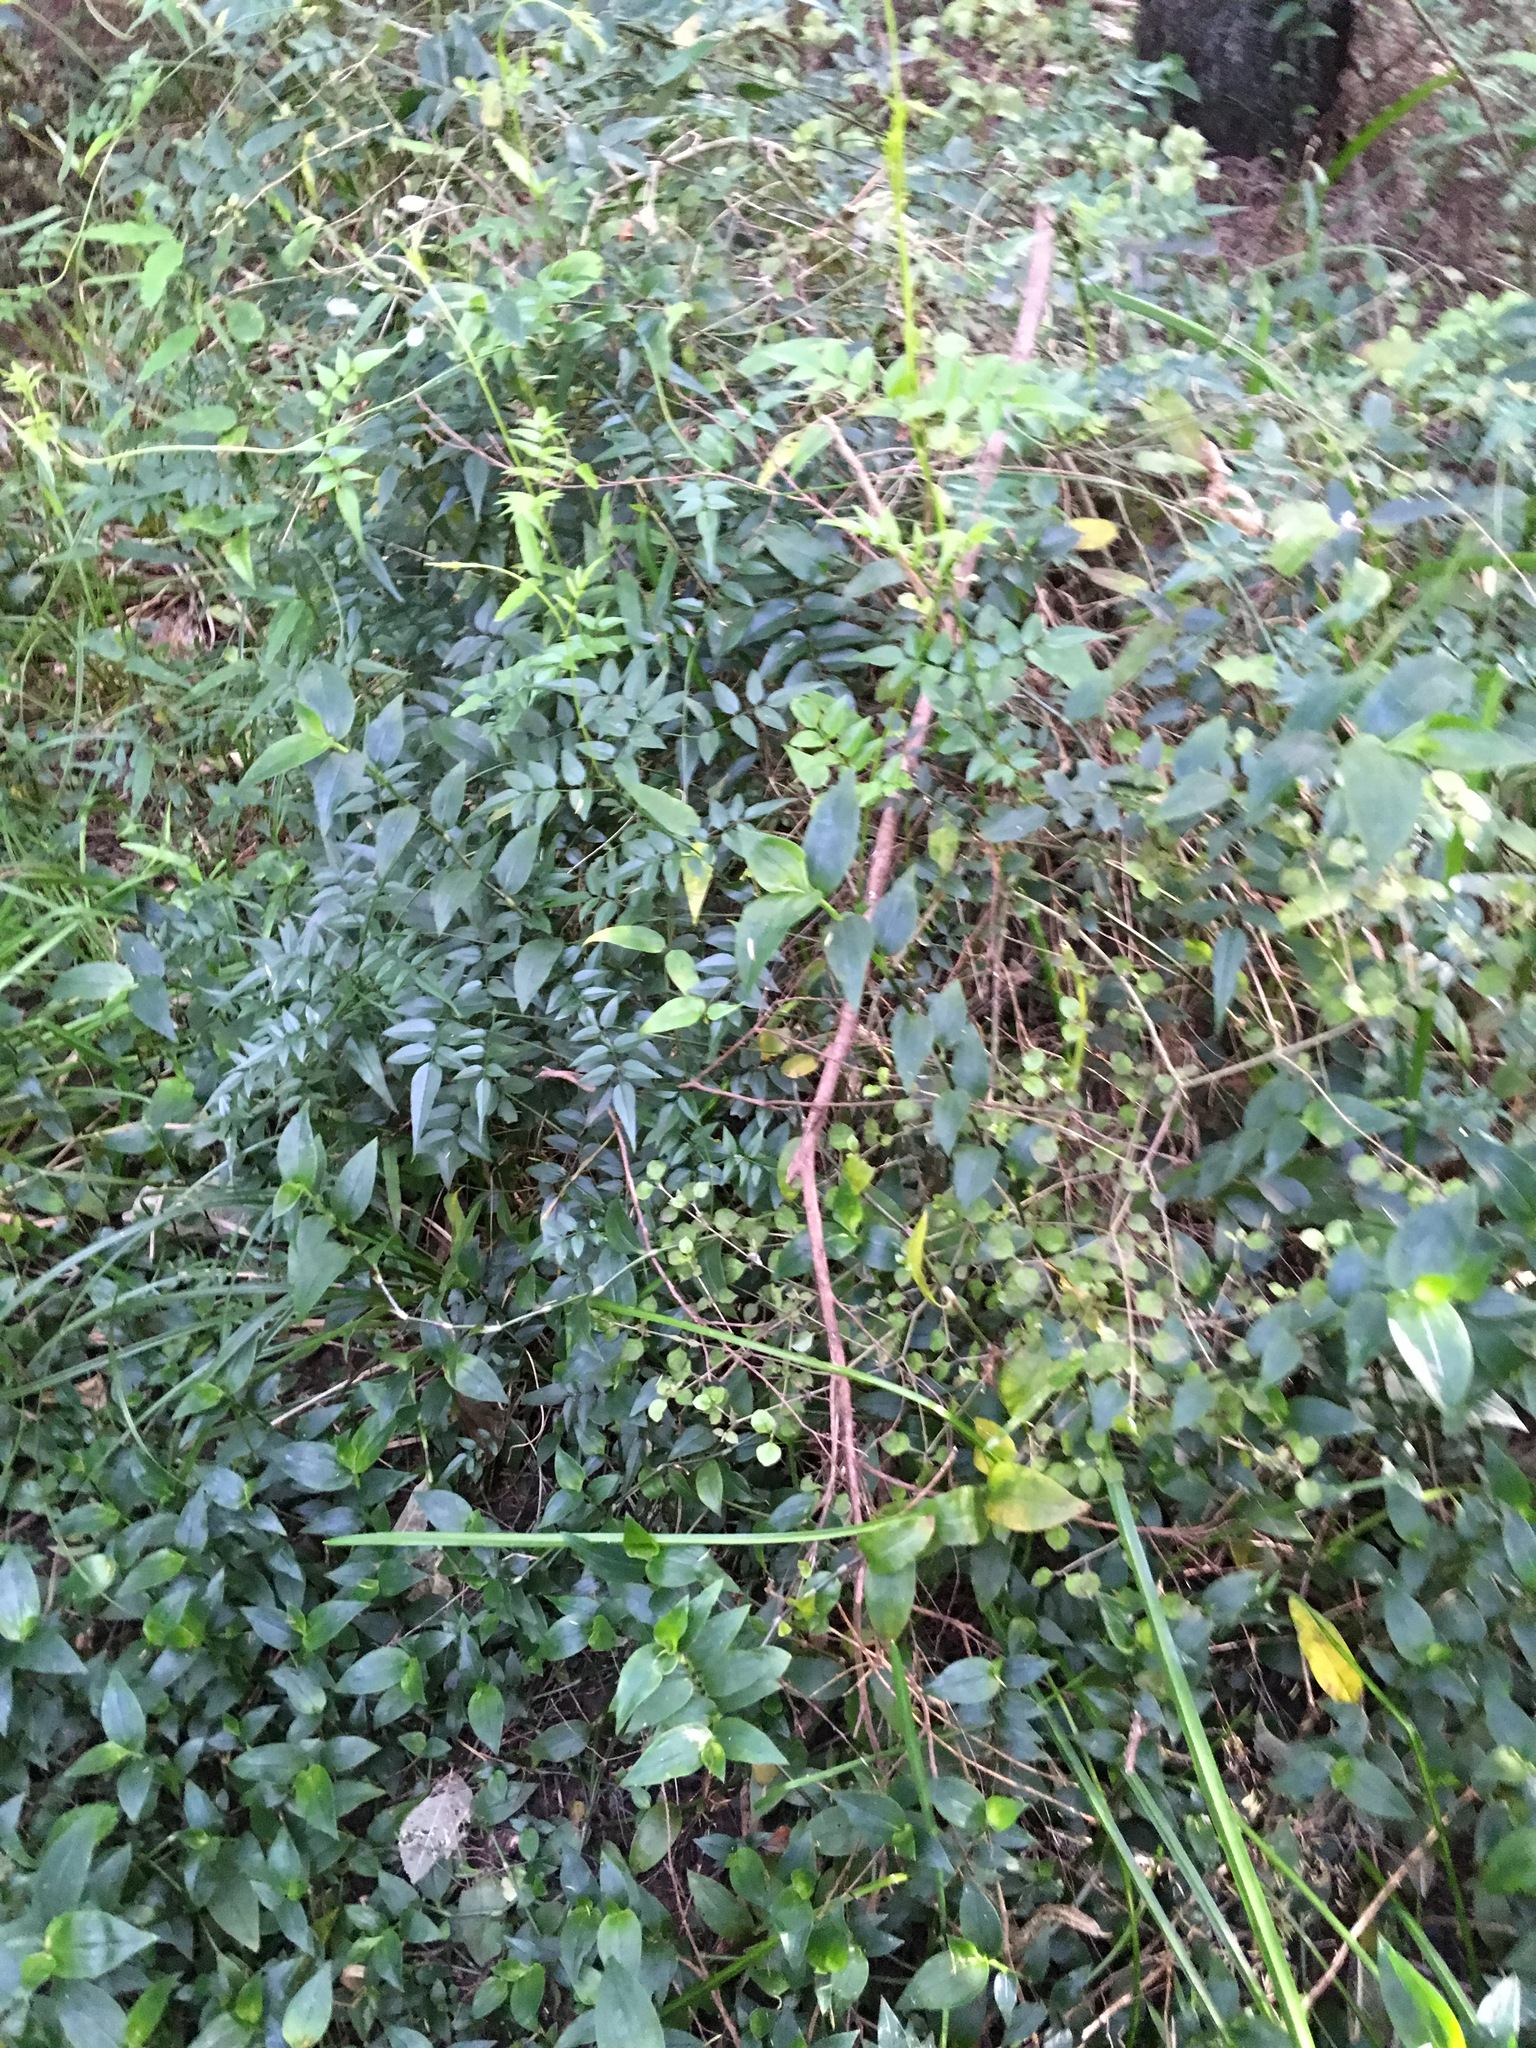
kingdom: Plantae
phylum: Tracheophyta
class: Magnoliopsida
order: Lamiales
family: Oleaceae
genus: Jasminum
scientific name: Jasminum polyanthum
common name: Pink jasmine
